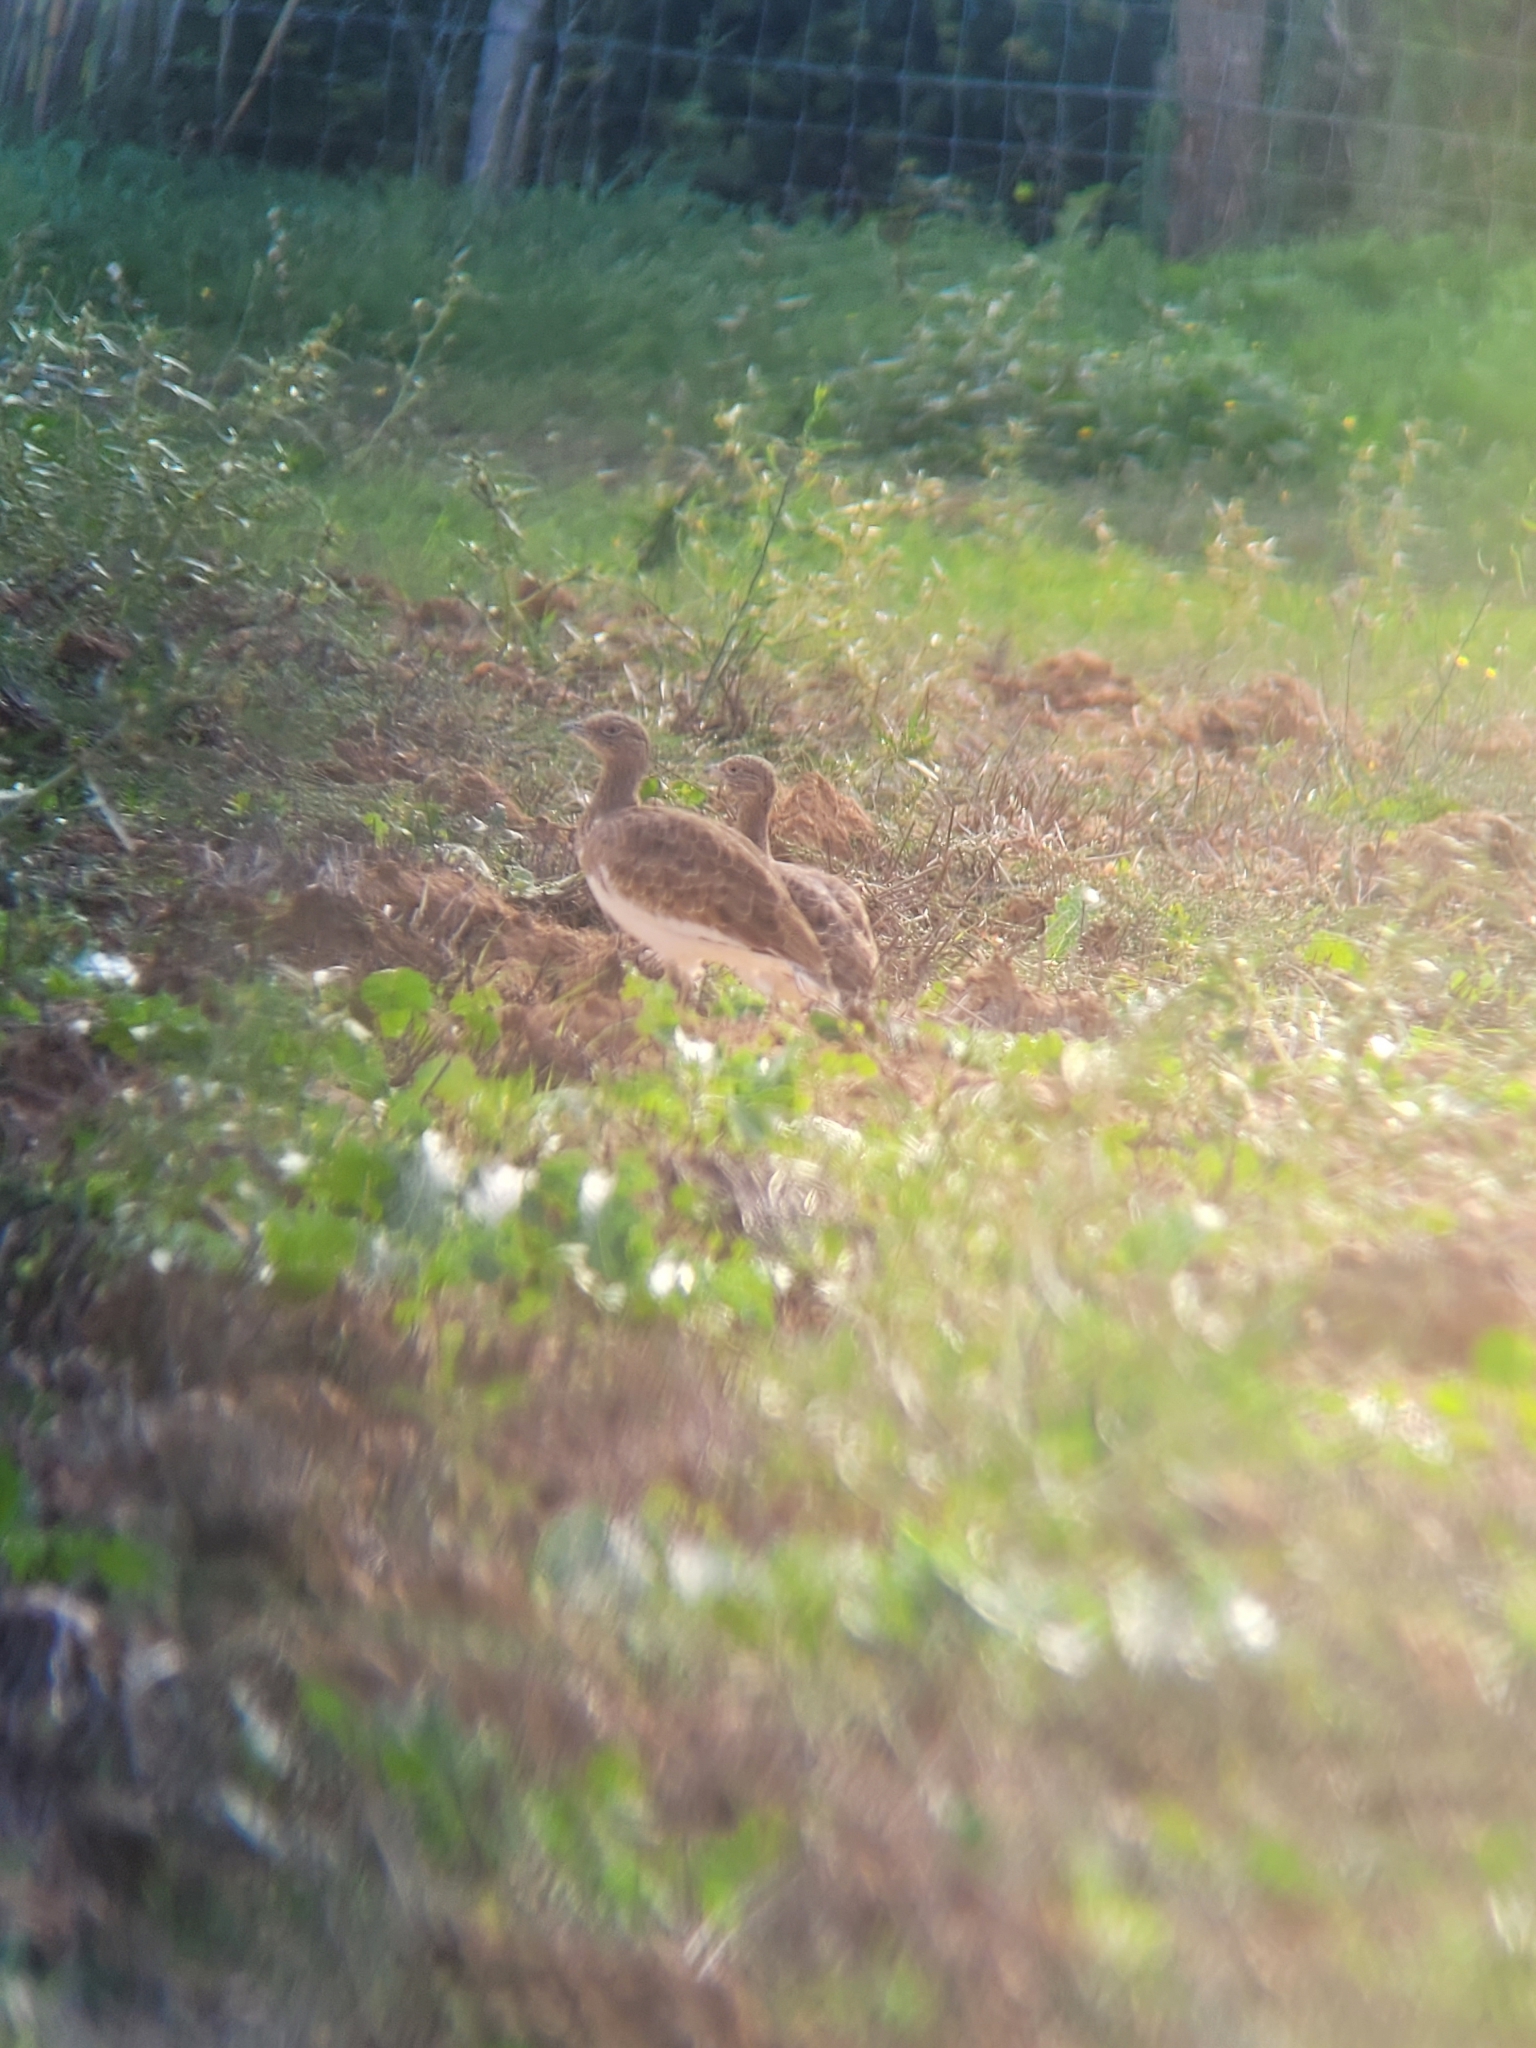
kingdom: Animalia
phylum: Chordata
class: Aves
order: Otidiformes
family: Otididae
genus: Tetrax
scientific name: Tetrax tetrax
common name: Little bustard
